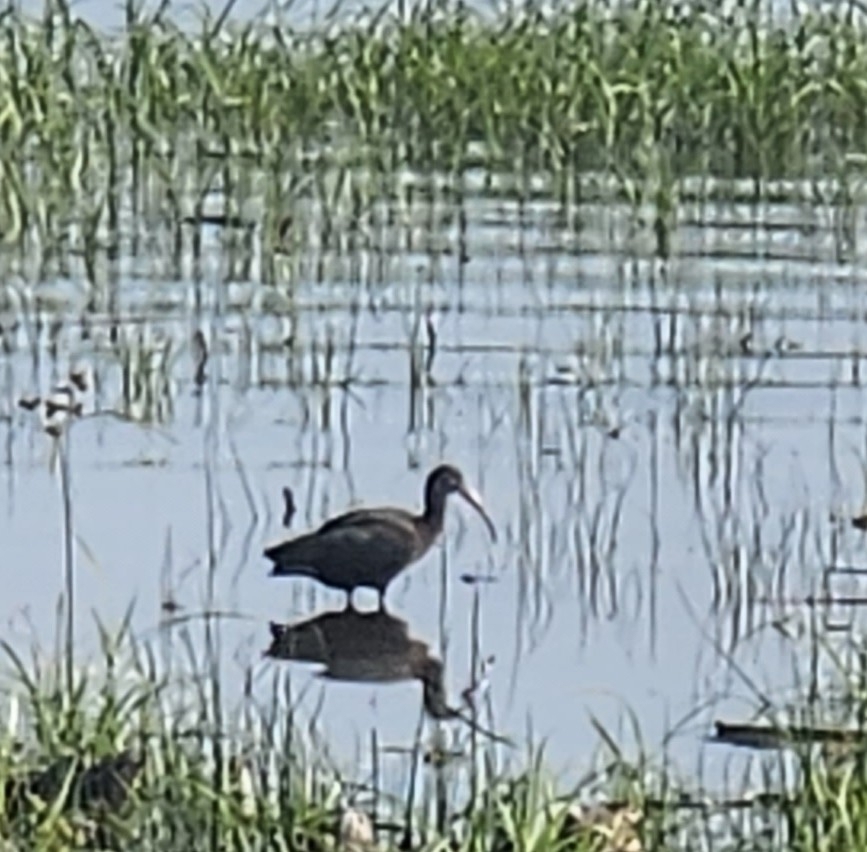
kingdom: Animalia
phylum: Chordata
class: Aves
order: Pelecaniformes
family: Threskiornithidae
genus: Plegadis
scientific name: Plegadis falcinellus
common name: Glossy ibis
